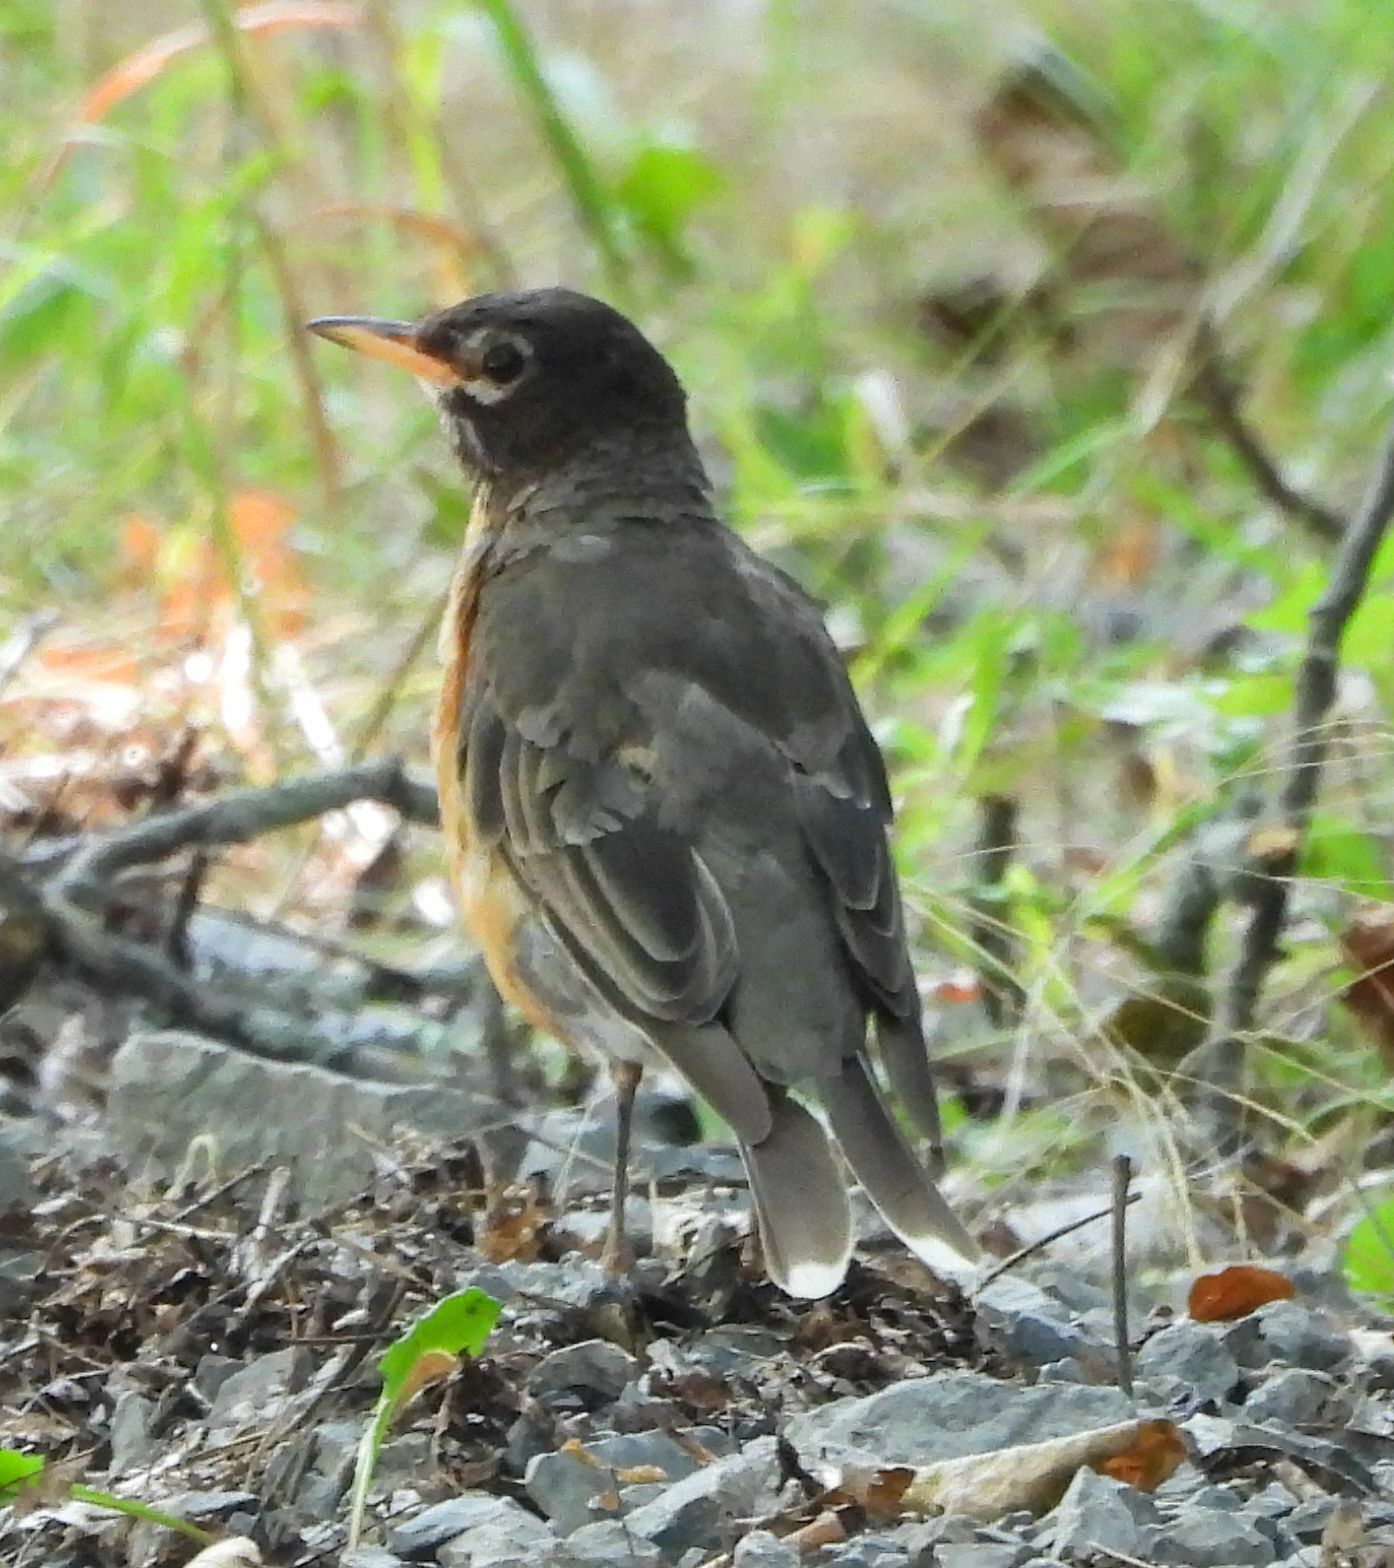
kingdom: Animalia
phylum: Chordata
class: Aves
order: Passeriformes
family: Turdidae
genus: Turdus
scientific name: Turdus migratorius
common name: American robin
